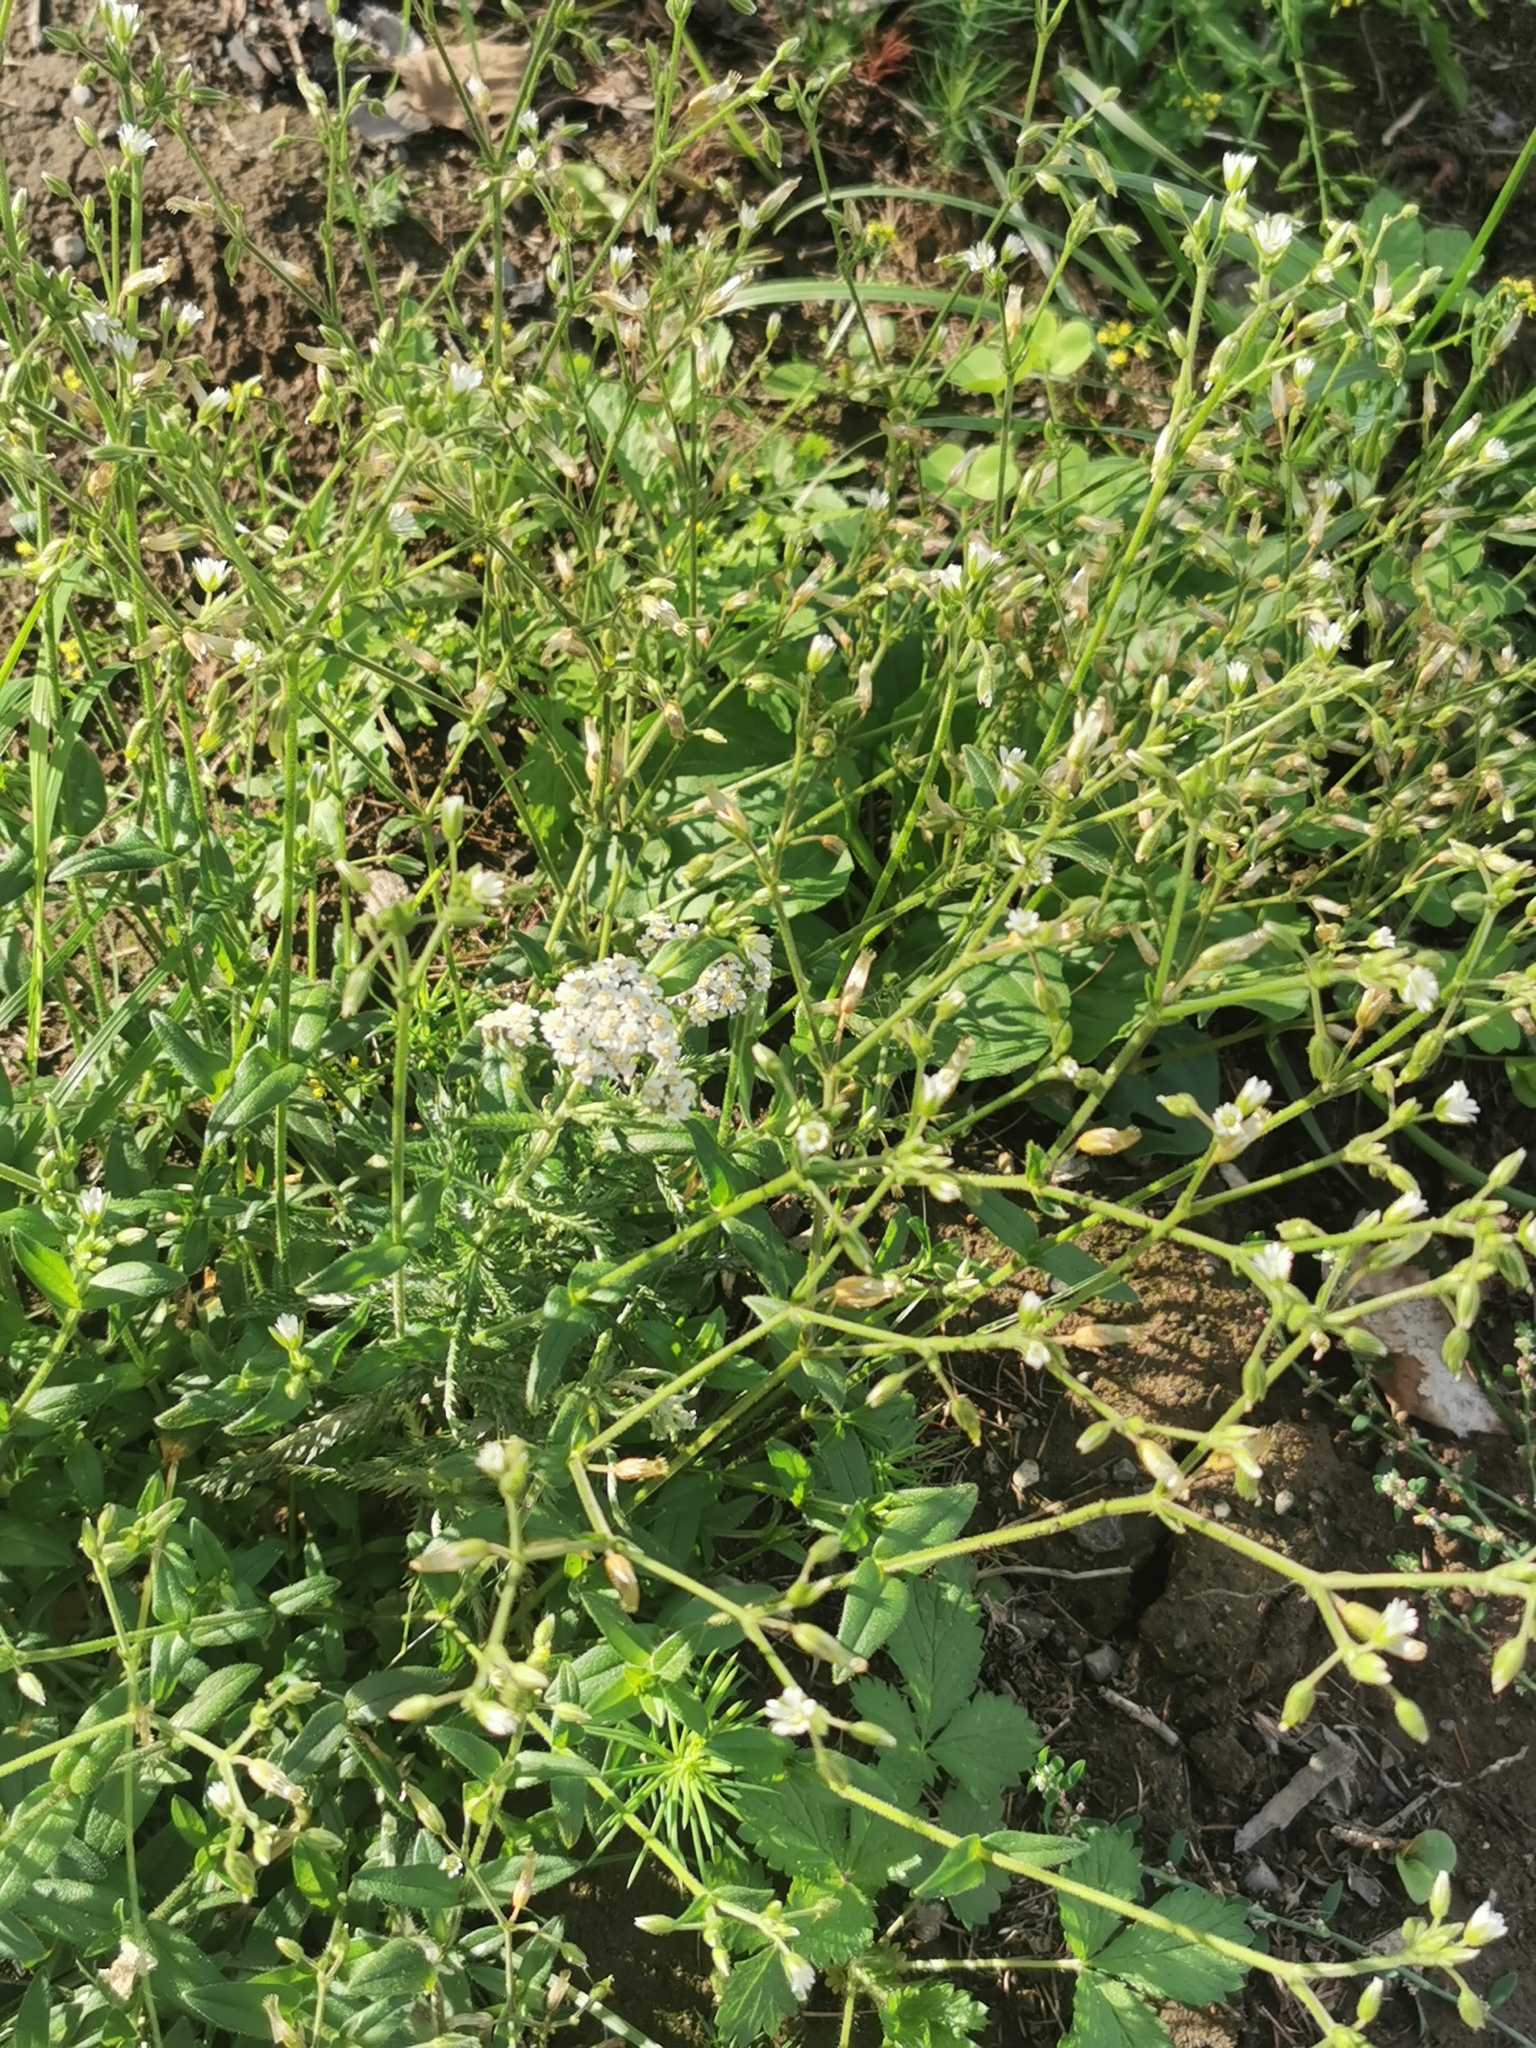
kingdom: Plantae
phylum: Tracheophyta
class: Magnoliopsida
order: Caryophyllales
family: Caryophyllaceae
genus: Cerastium
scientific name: Cerastium holosteoides
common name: Big chickweed
